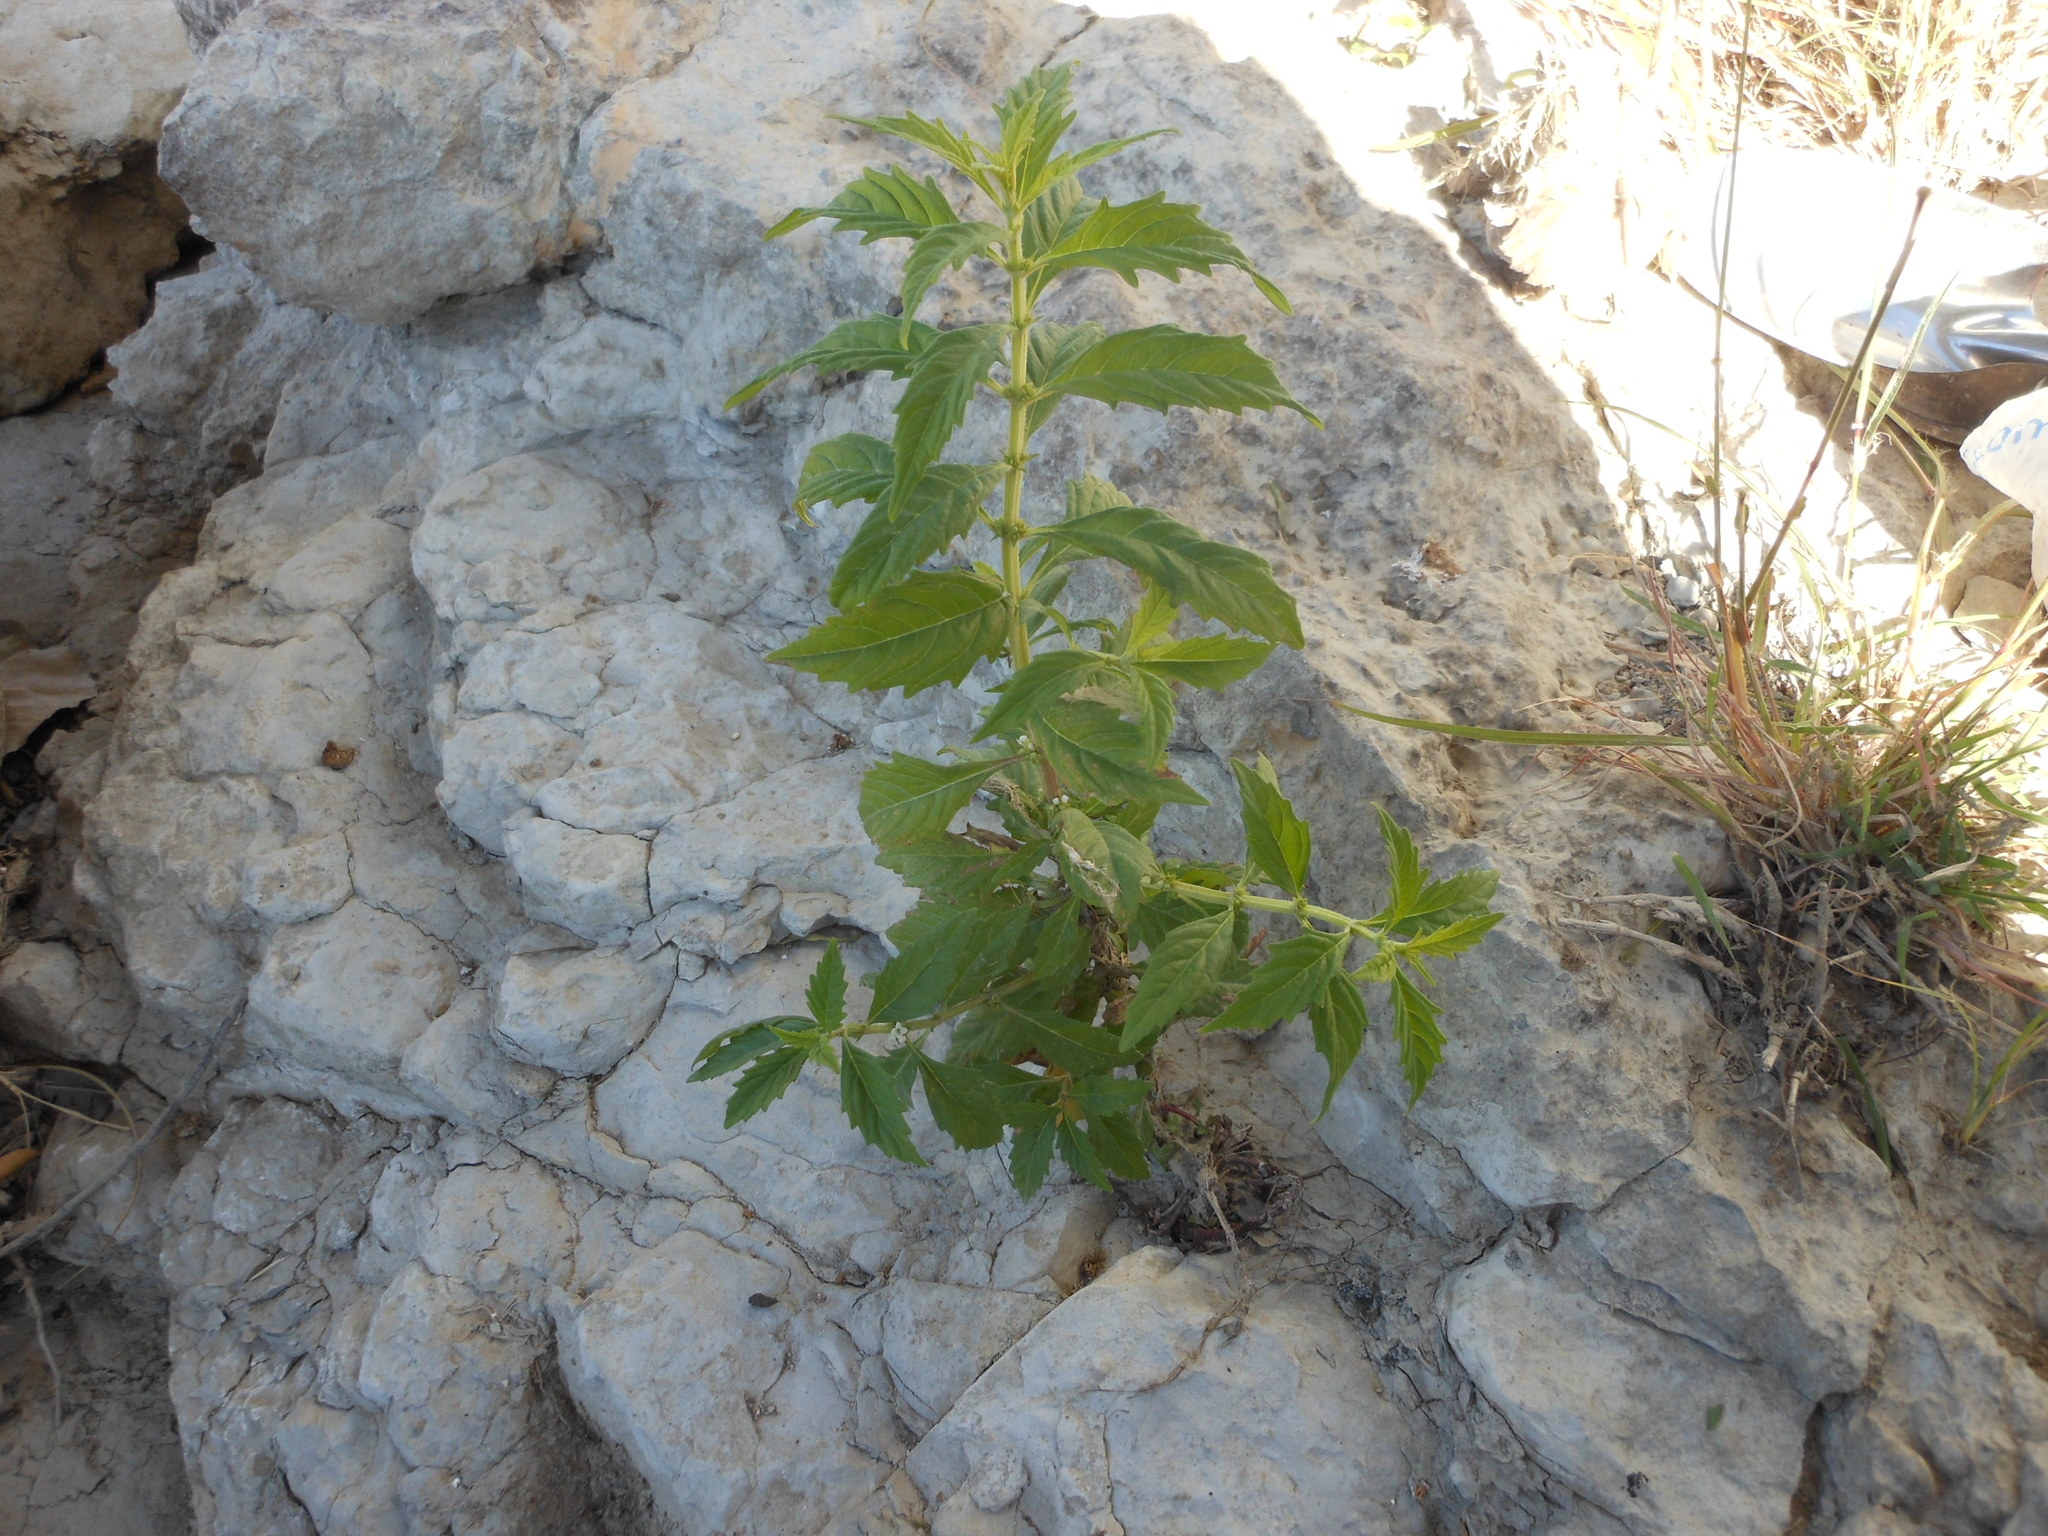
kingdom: Plantae
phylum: Tracheophyta
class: Magnoliopsida
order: Lamiales
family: Lamiaceae
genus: Lycopus
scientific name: Lycopus americanus
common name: American bugleweed
